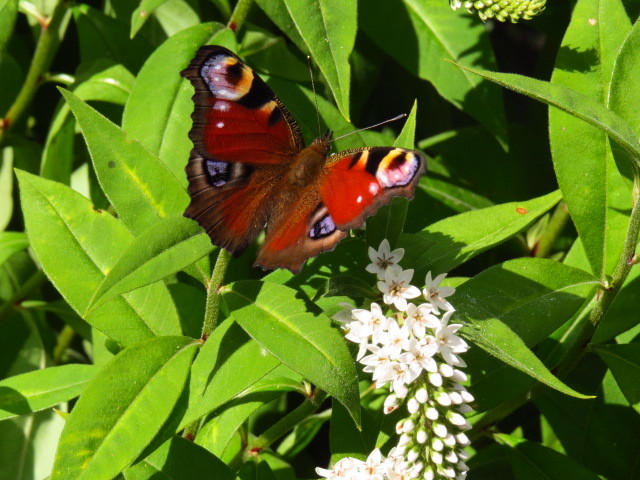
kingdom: Animalia
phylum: Arthropoda
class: Insecta
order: Lepidoptera
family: Nymphalidae
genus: Aglais
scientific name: Aglais io
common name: Peacock
